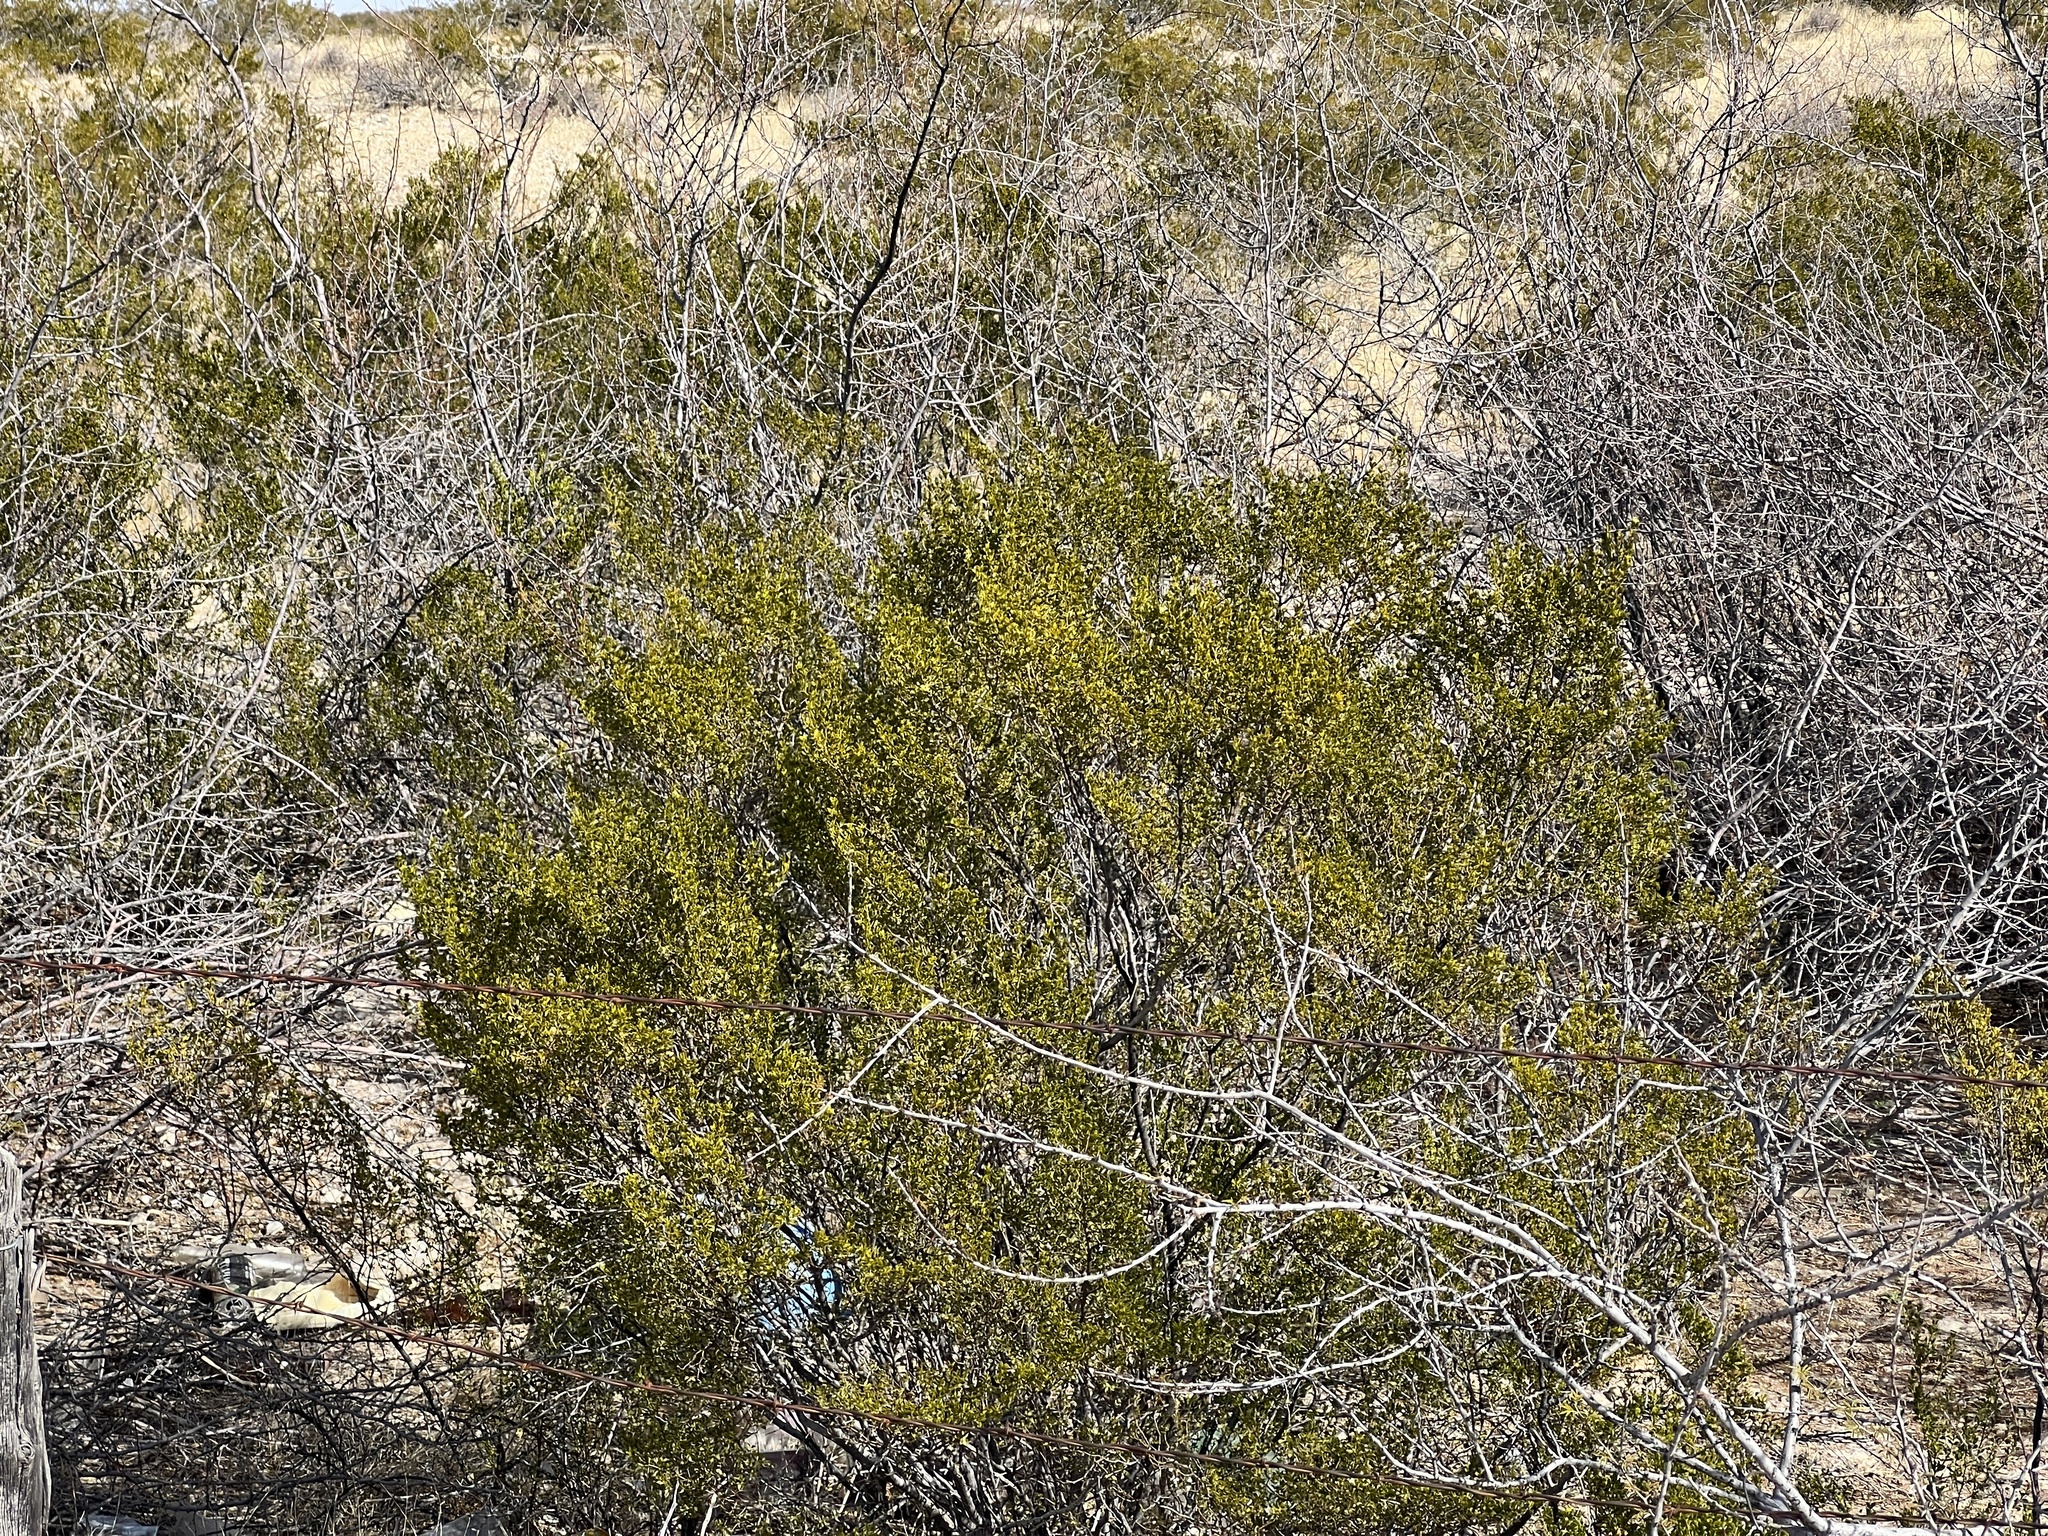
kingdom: Plantae
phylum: Tracheophyta
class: Magnoliopsida
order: Zygophyllales
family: Zygophyllaceae
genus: Larrea
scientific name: Larrea tridentata
